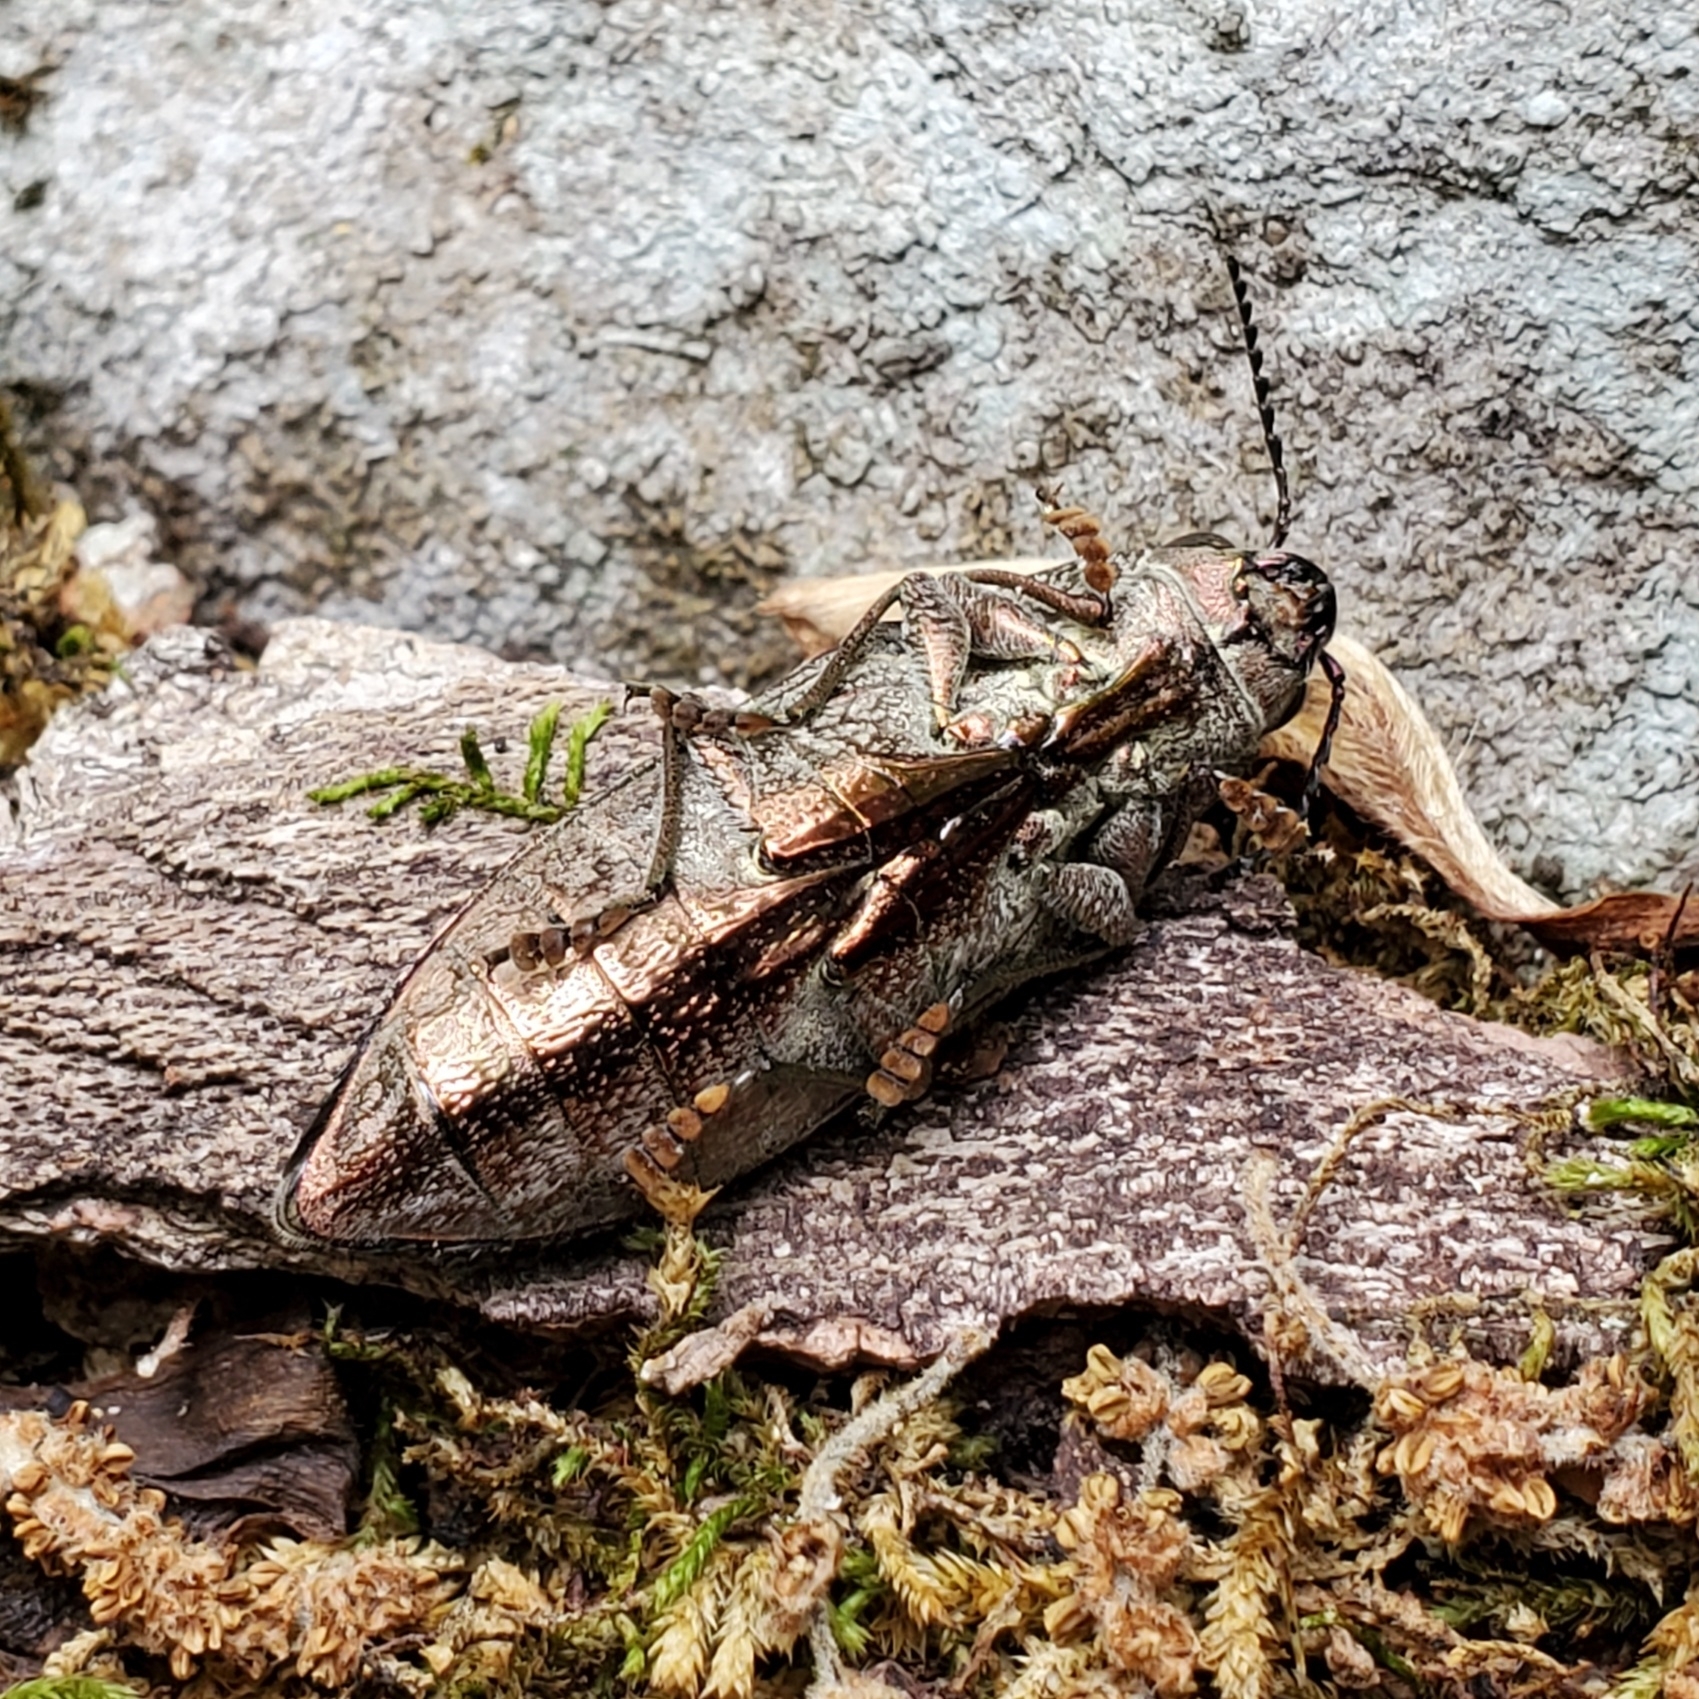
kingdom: Animalia
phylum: Arthropoda
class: Insecta
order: Coleoptera
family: Buprestidae
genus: Texania
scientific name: Texania campestris
